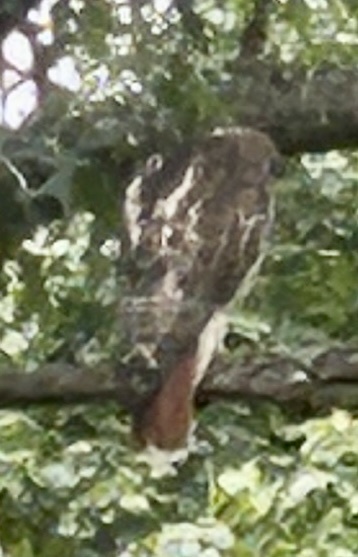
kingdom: Animalia
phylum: Chordata
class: Aves
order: Accipitriformes
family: Accipitridae
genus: Buteo
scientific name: Buteo jamaicensis
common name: Red-tailed hawk
